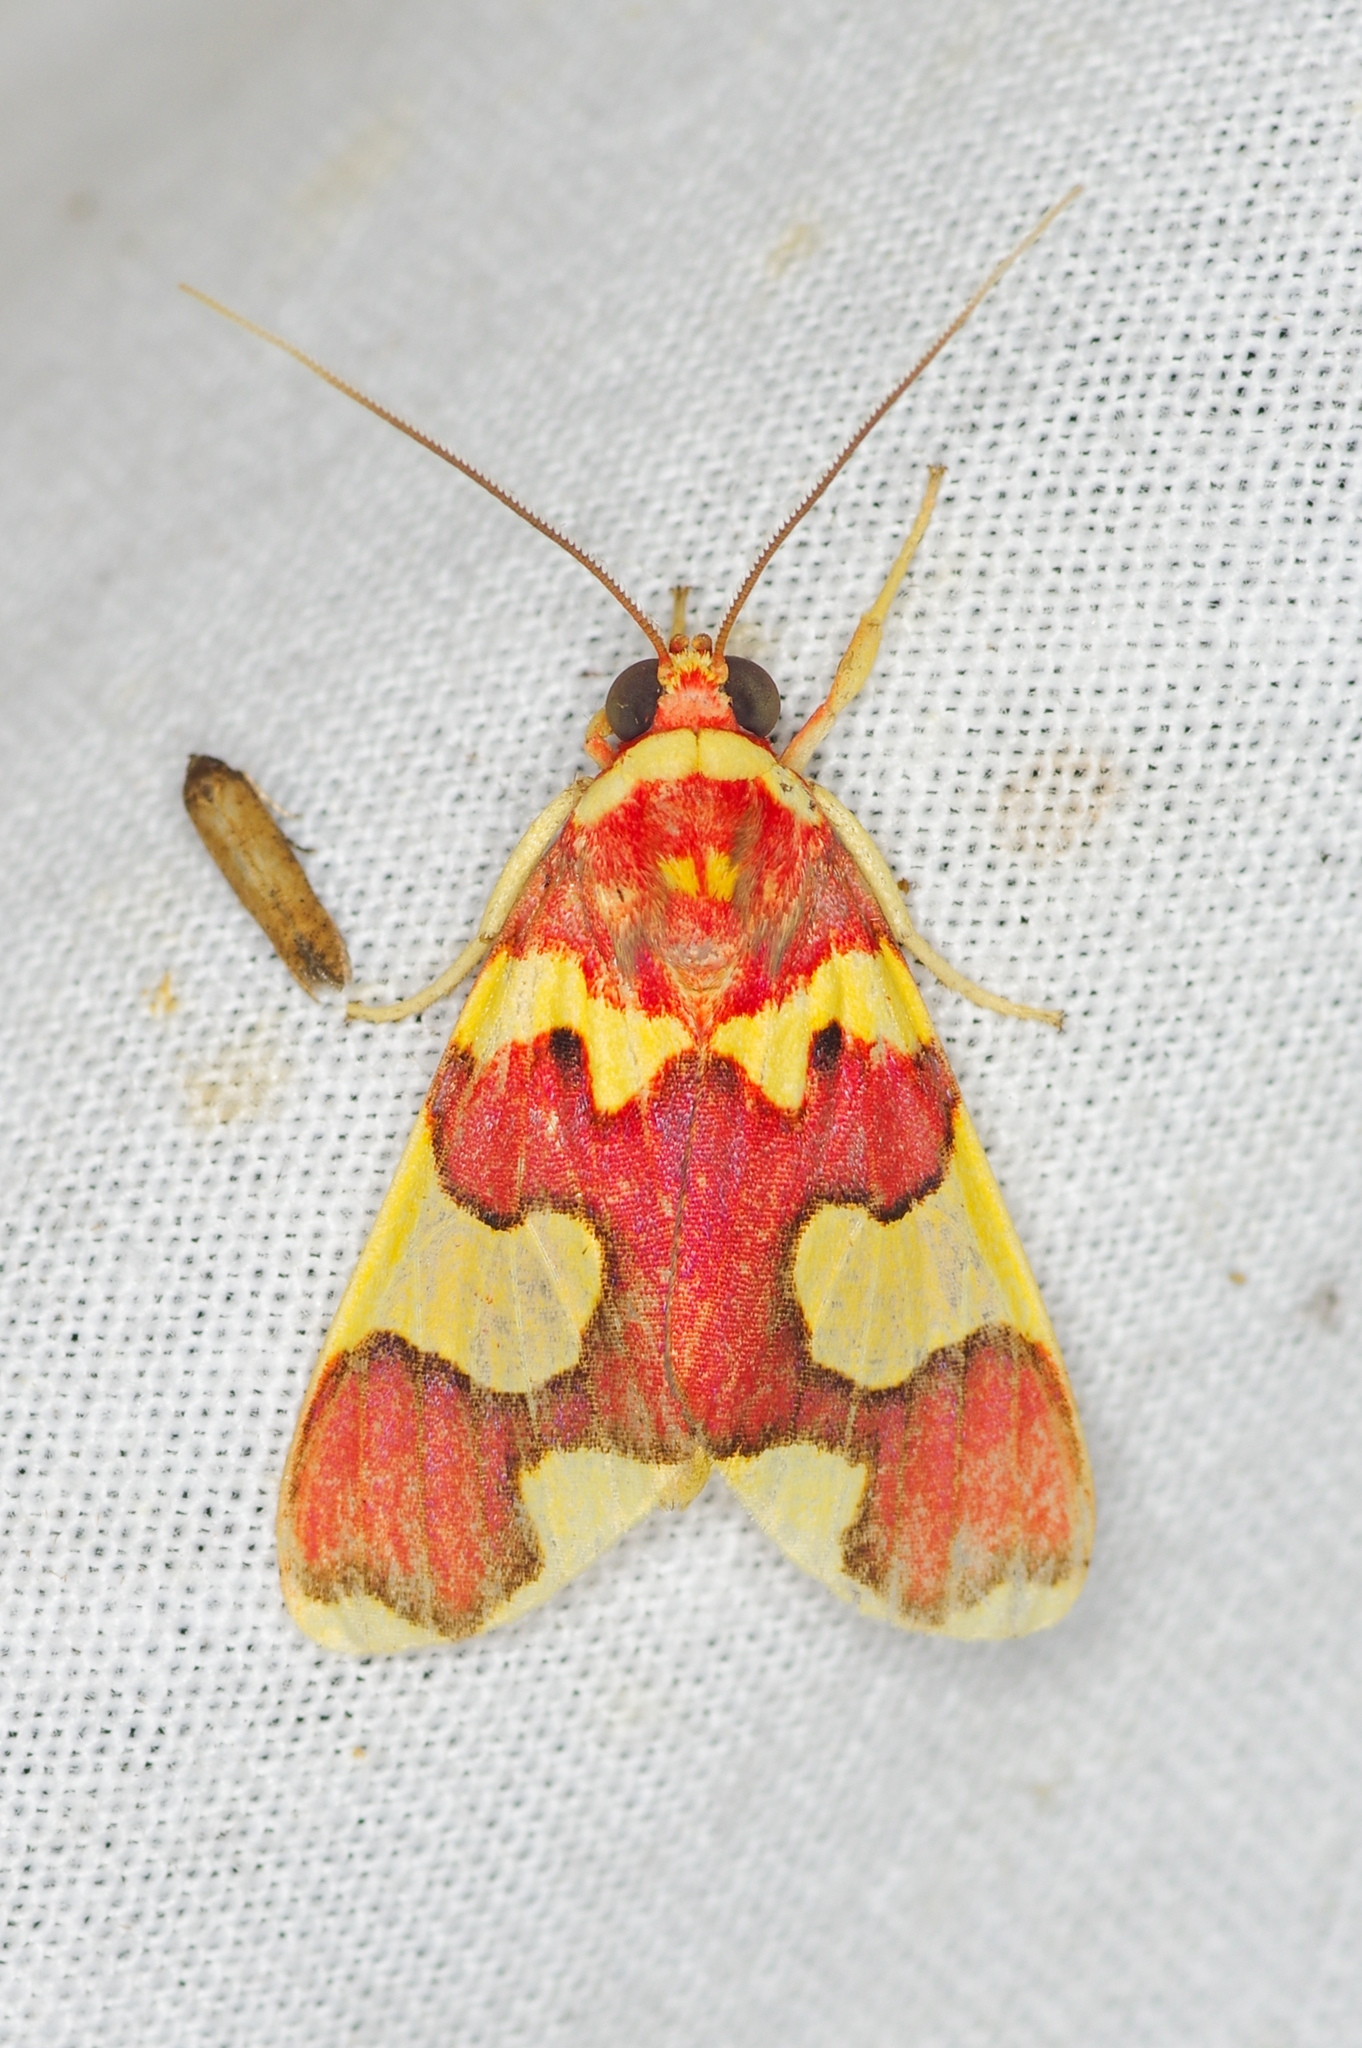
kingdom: Animalia
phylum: Arthropoda
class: Insecta
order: Lepidoptera
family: Erebidae
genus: Trichromia
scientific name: Trichromia supracoccinea
